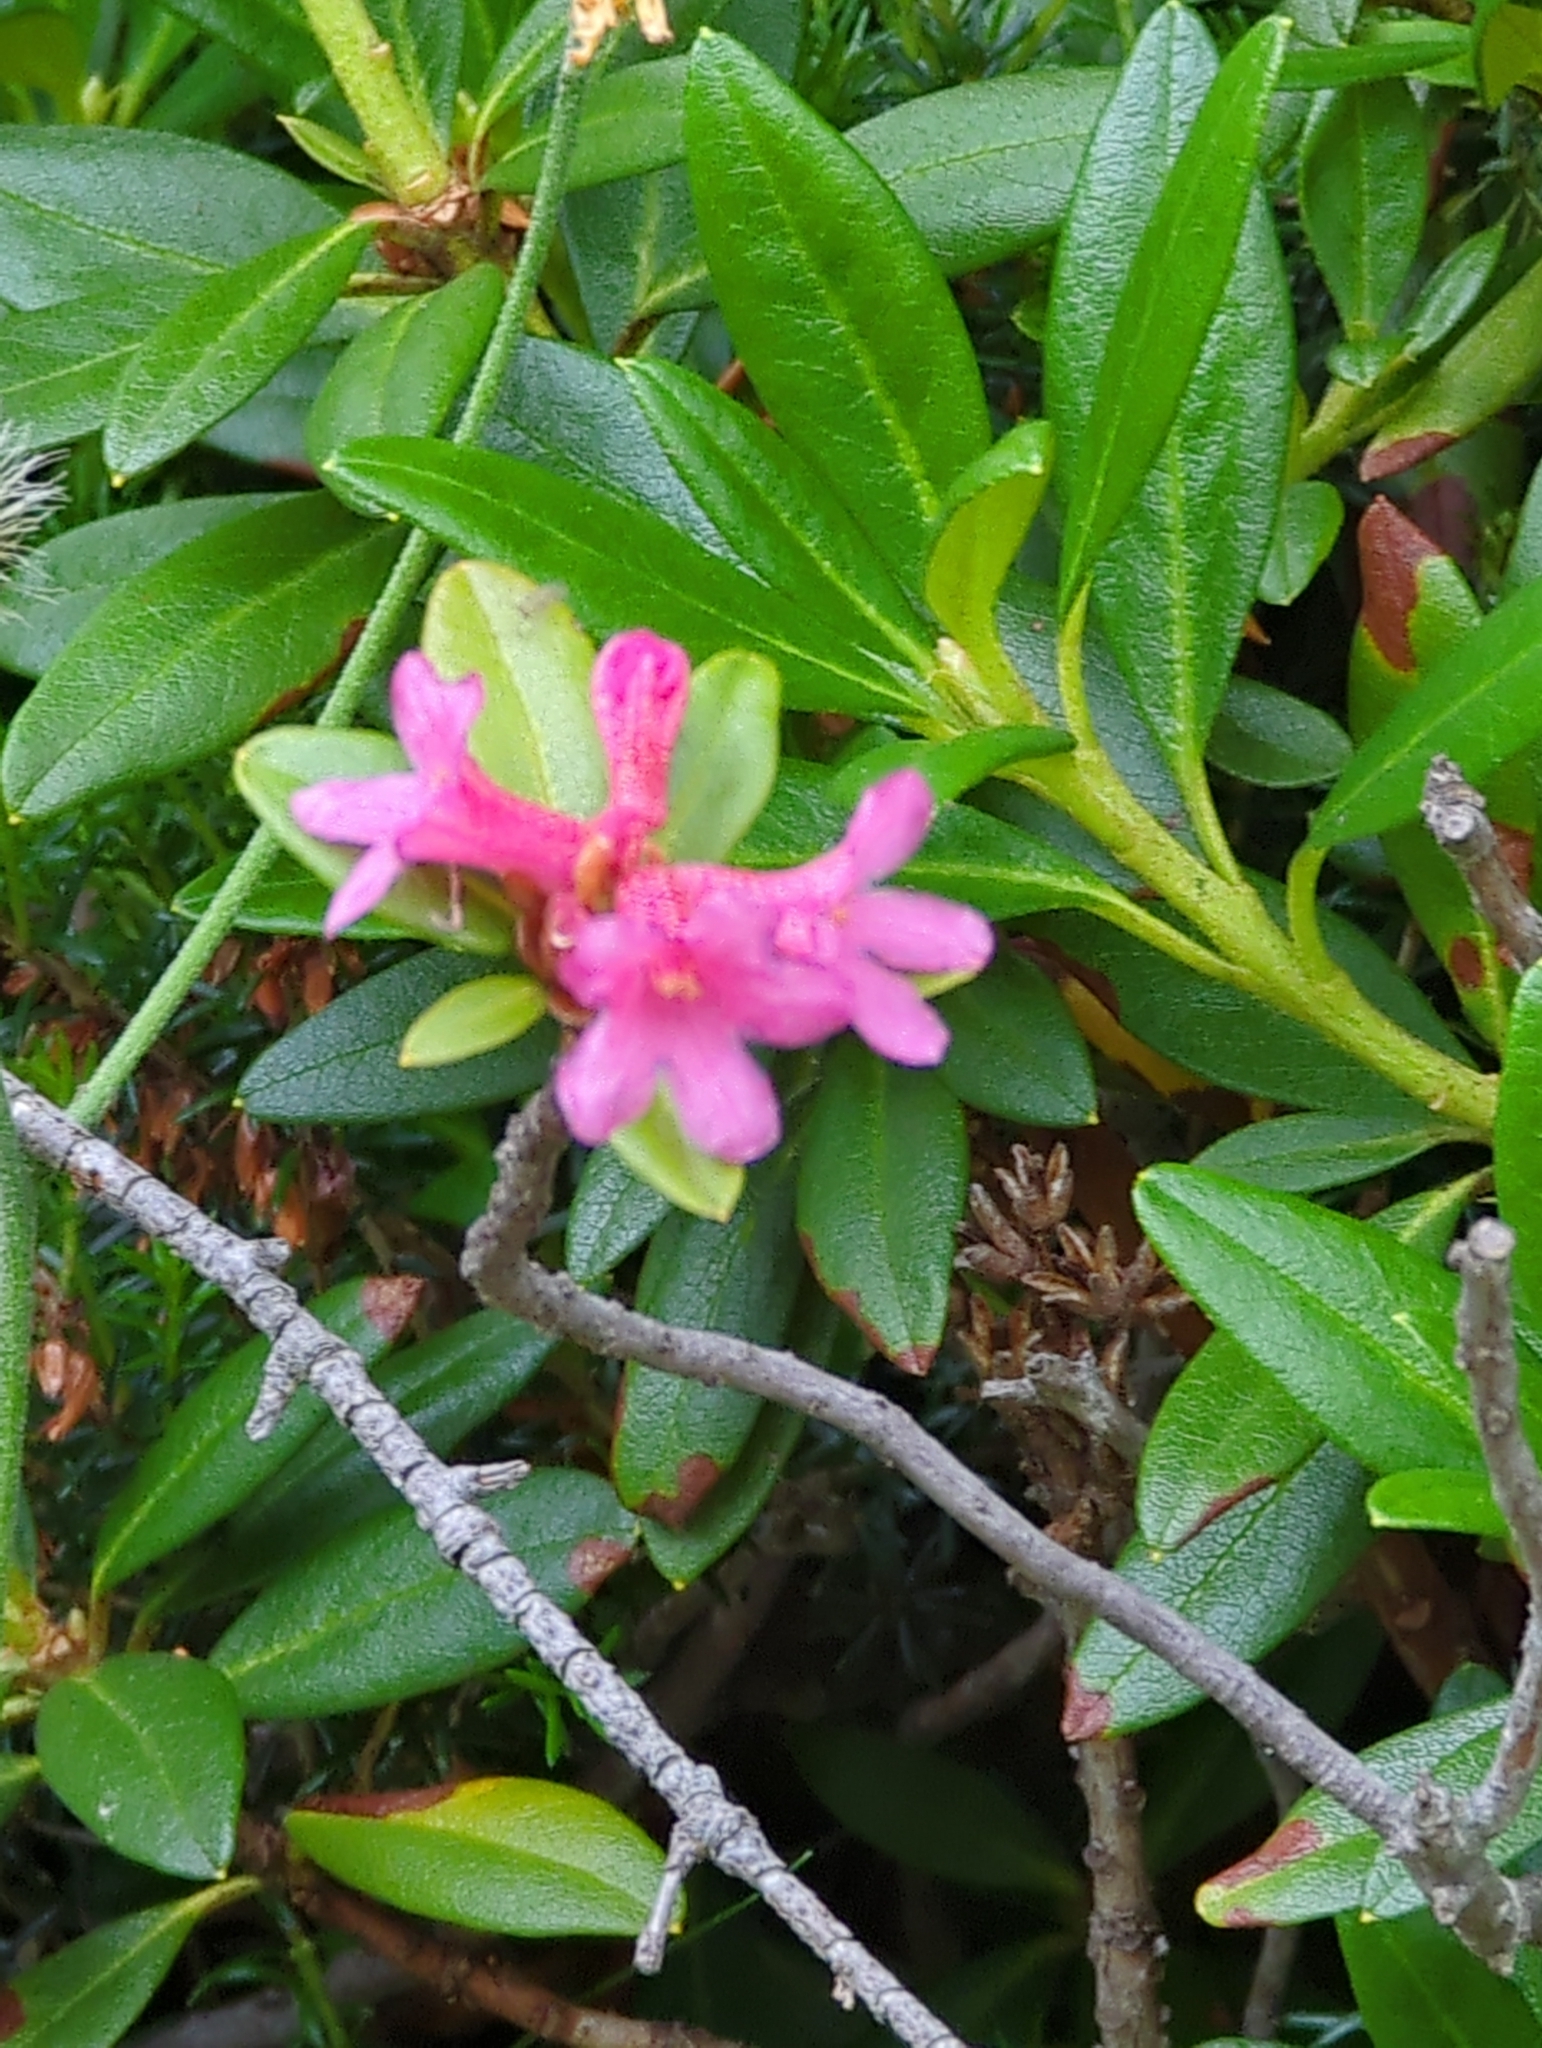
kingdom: Plantae
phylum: Tracheophyta
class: Magnoliopsida
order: Ericales
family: Ericaceae
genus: Rhododendron
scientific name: Rhododendron ferrugineum
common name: Alpenrose
